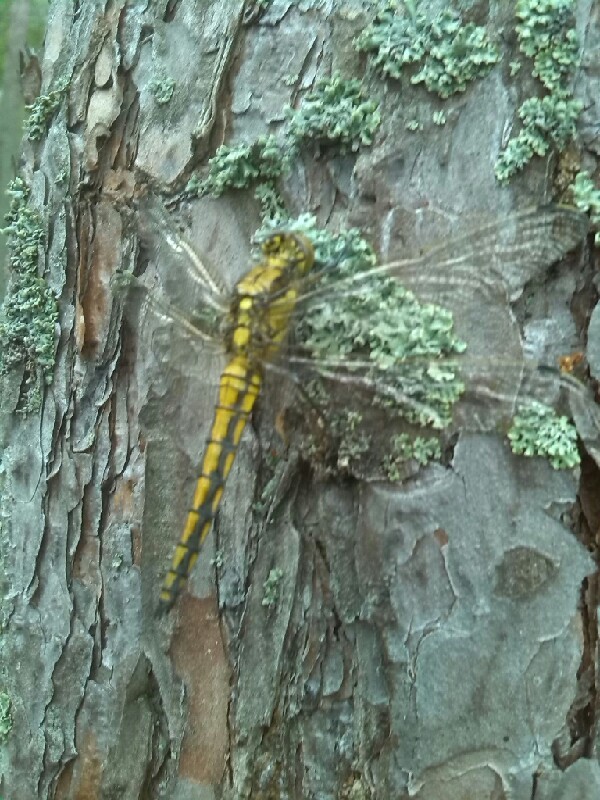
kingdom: Animalia
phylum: Arthropoda
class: Insecta
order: Odonata
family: Libellulidae
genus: Orthetrum
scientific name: Orthetrum cancellatum
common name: Black-tailed skimmer
